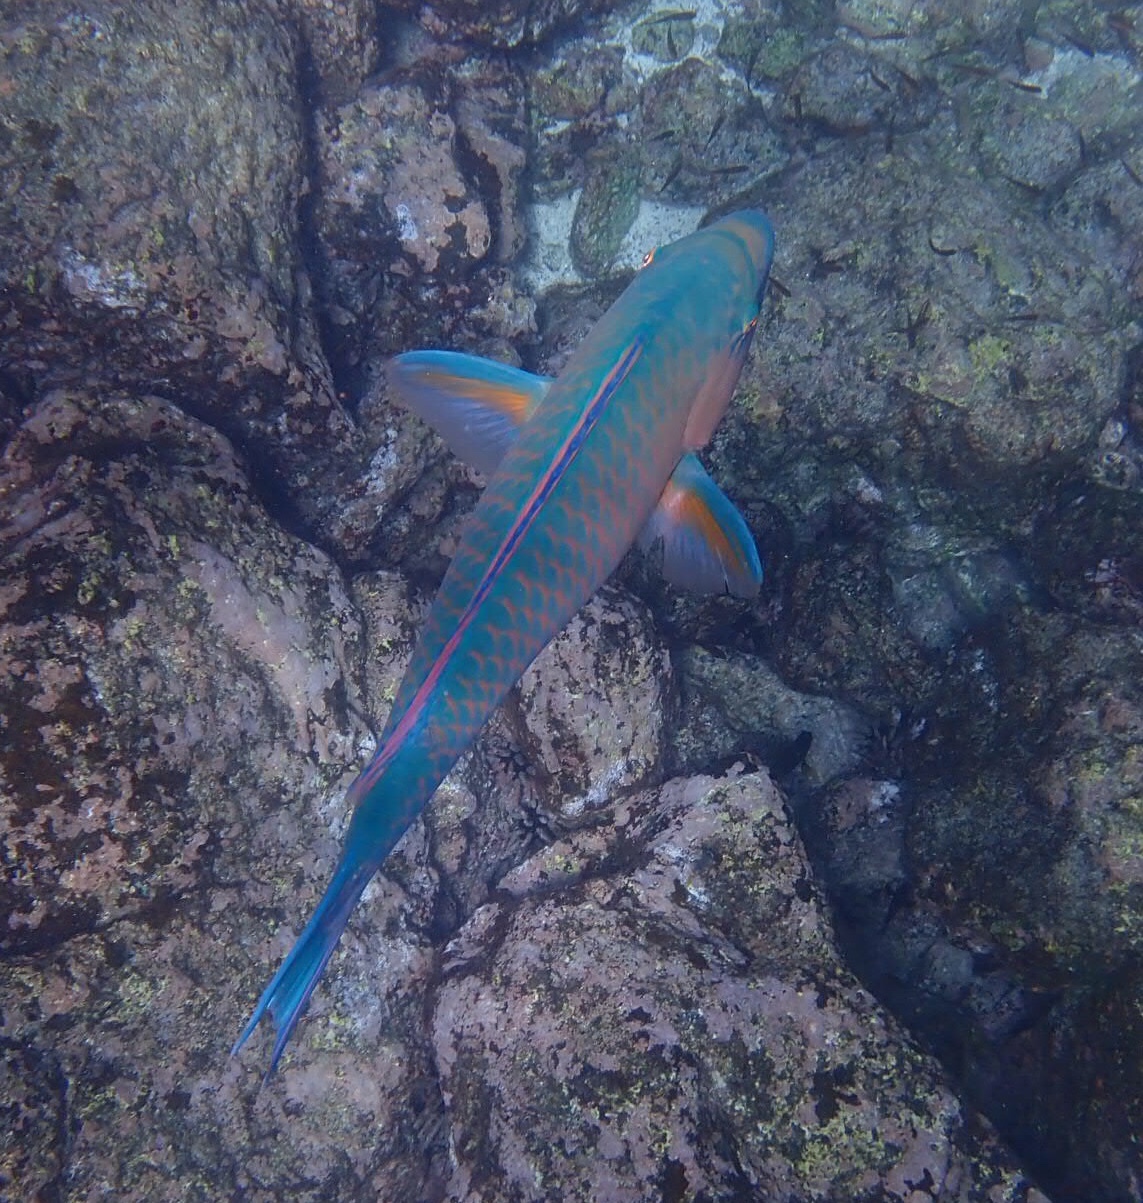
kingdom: Animalia
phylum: Chordata
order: Perciformes
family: Scaridae
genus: Scarus
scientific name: Scarus ghobban
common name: Blue-barred parrotfish
